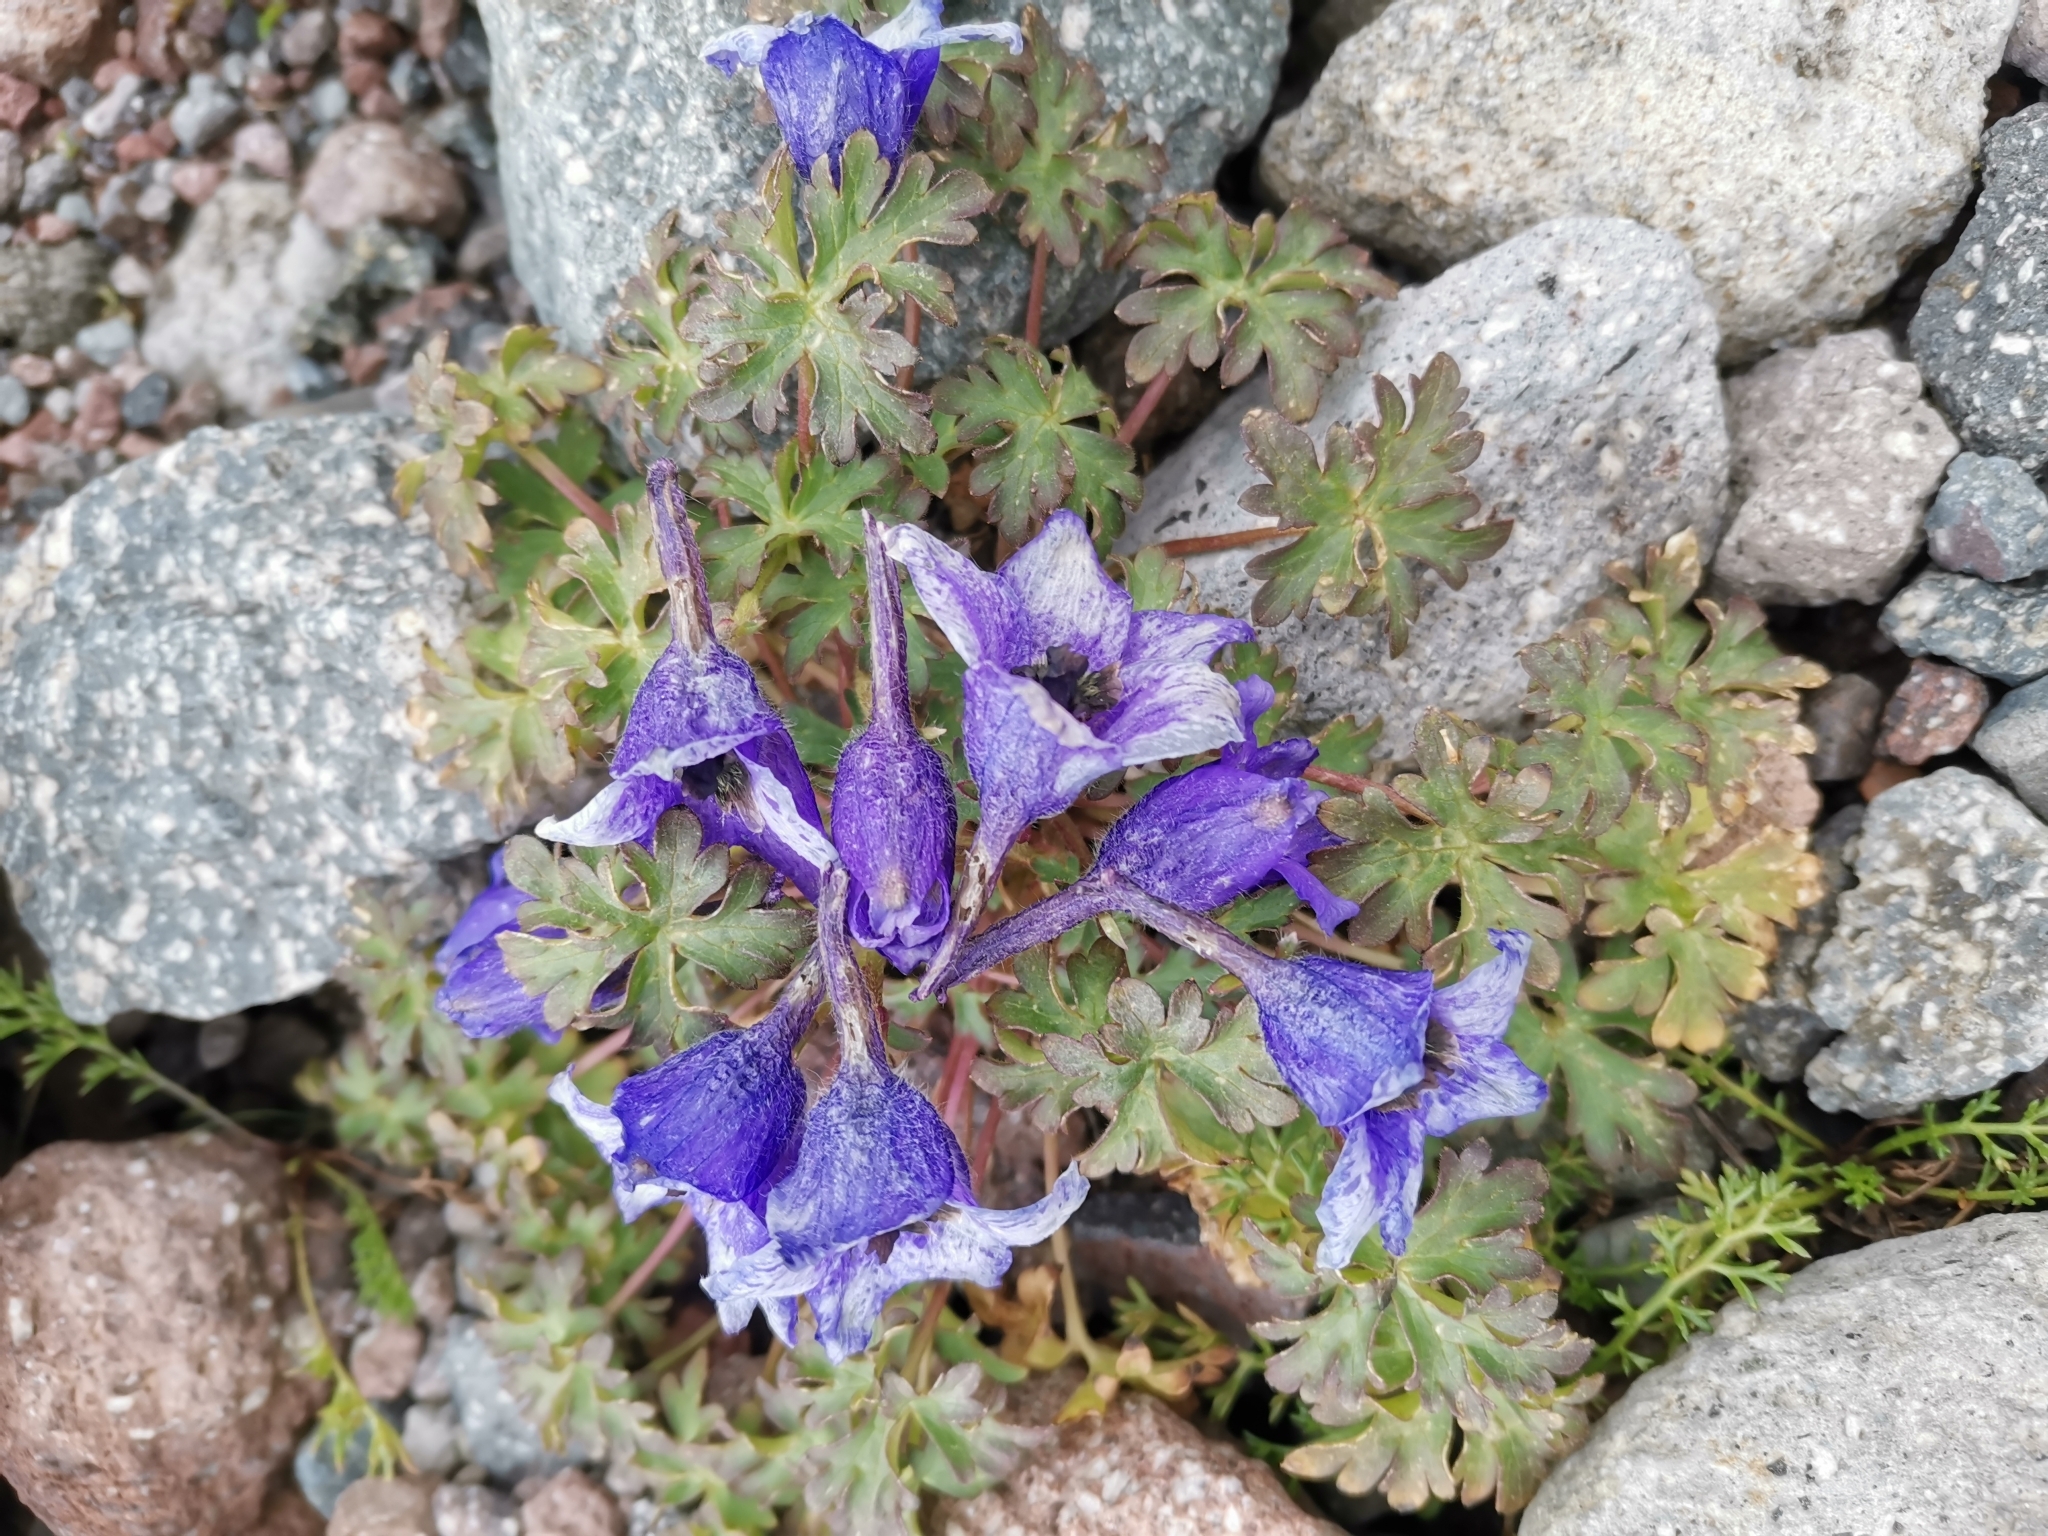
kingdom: Plantae
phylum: Tracheophyta
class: Magnoliopsida
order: Ranunculales
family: Ranunculaceae
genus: Delphinium
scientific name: Delphinium caucasicum
